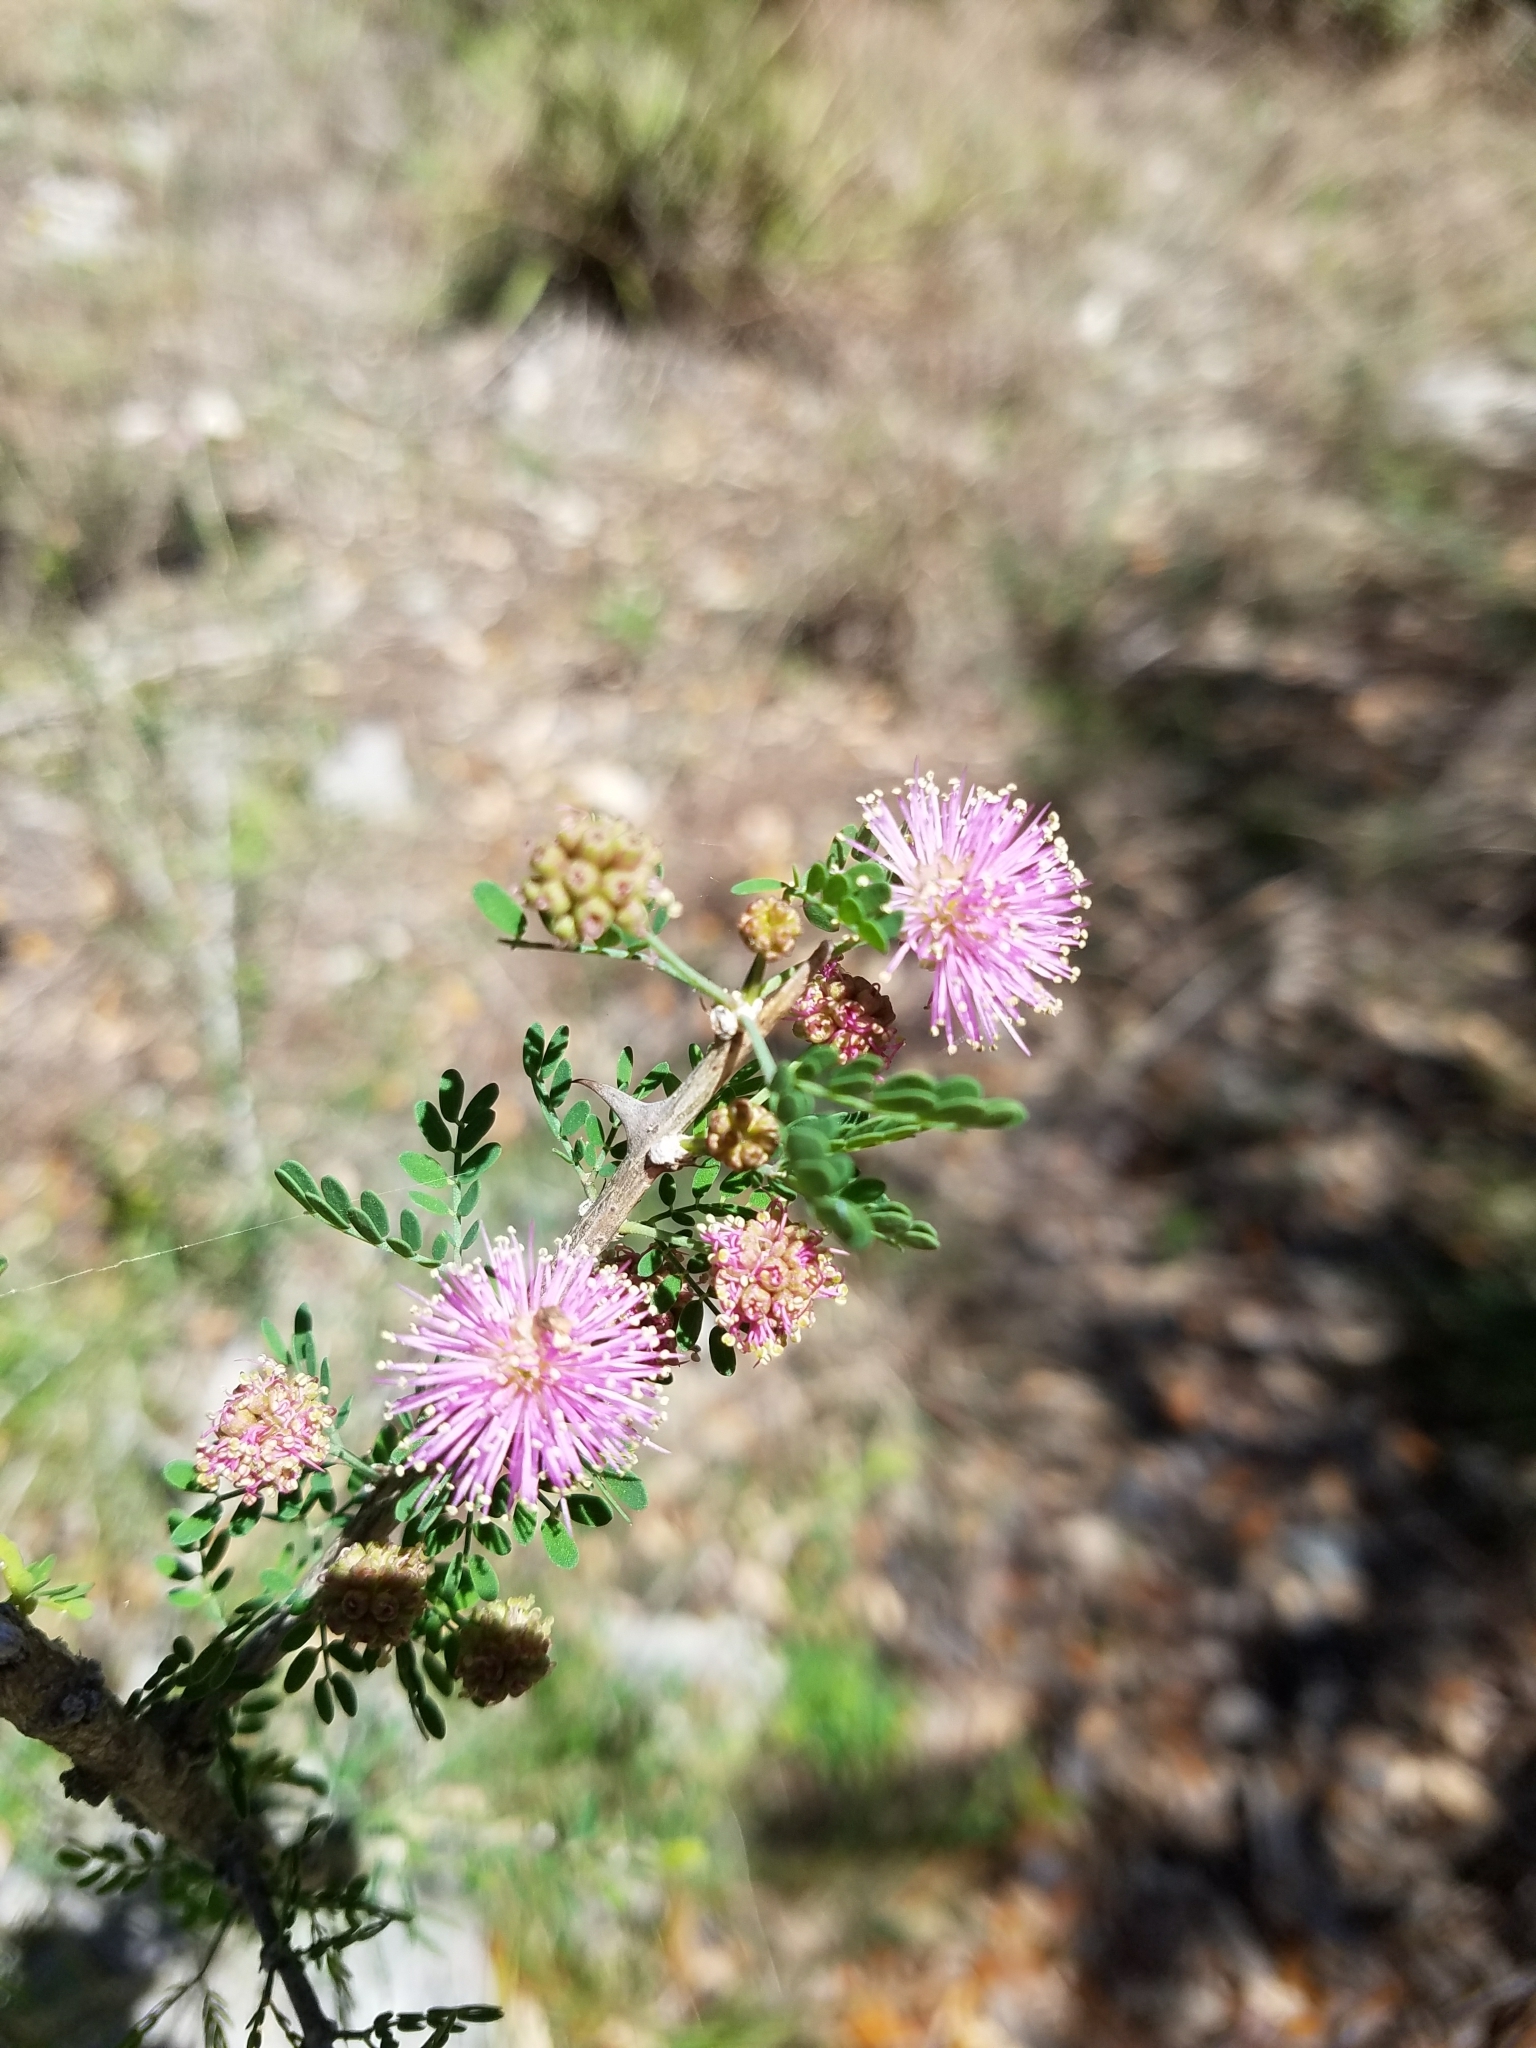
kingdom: Plantae
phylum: Tracheophyta
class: Magnoliopsida
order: Fabales
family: Fabaceae
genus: Mimosa
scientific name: Mimosa borealis
